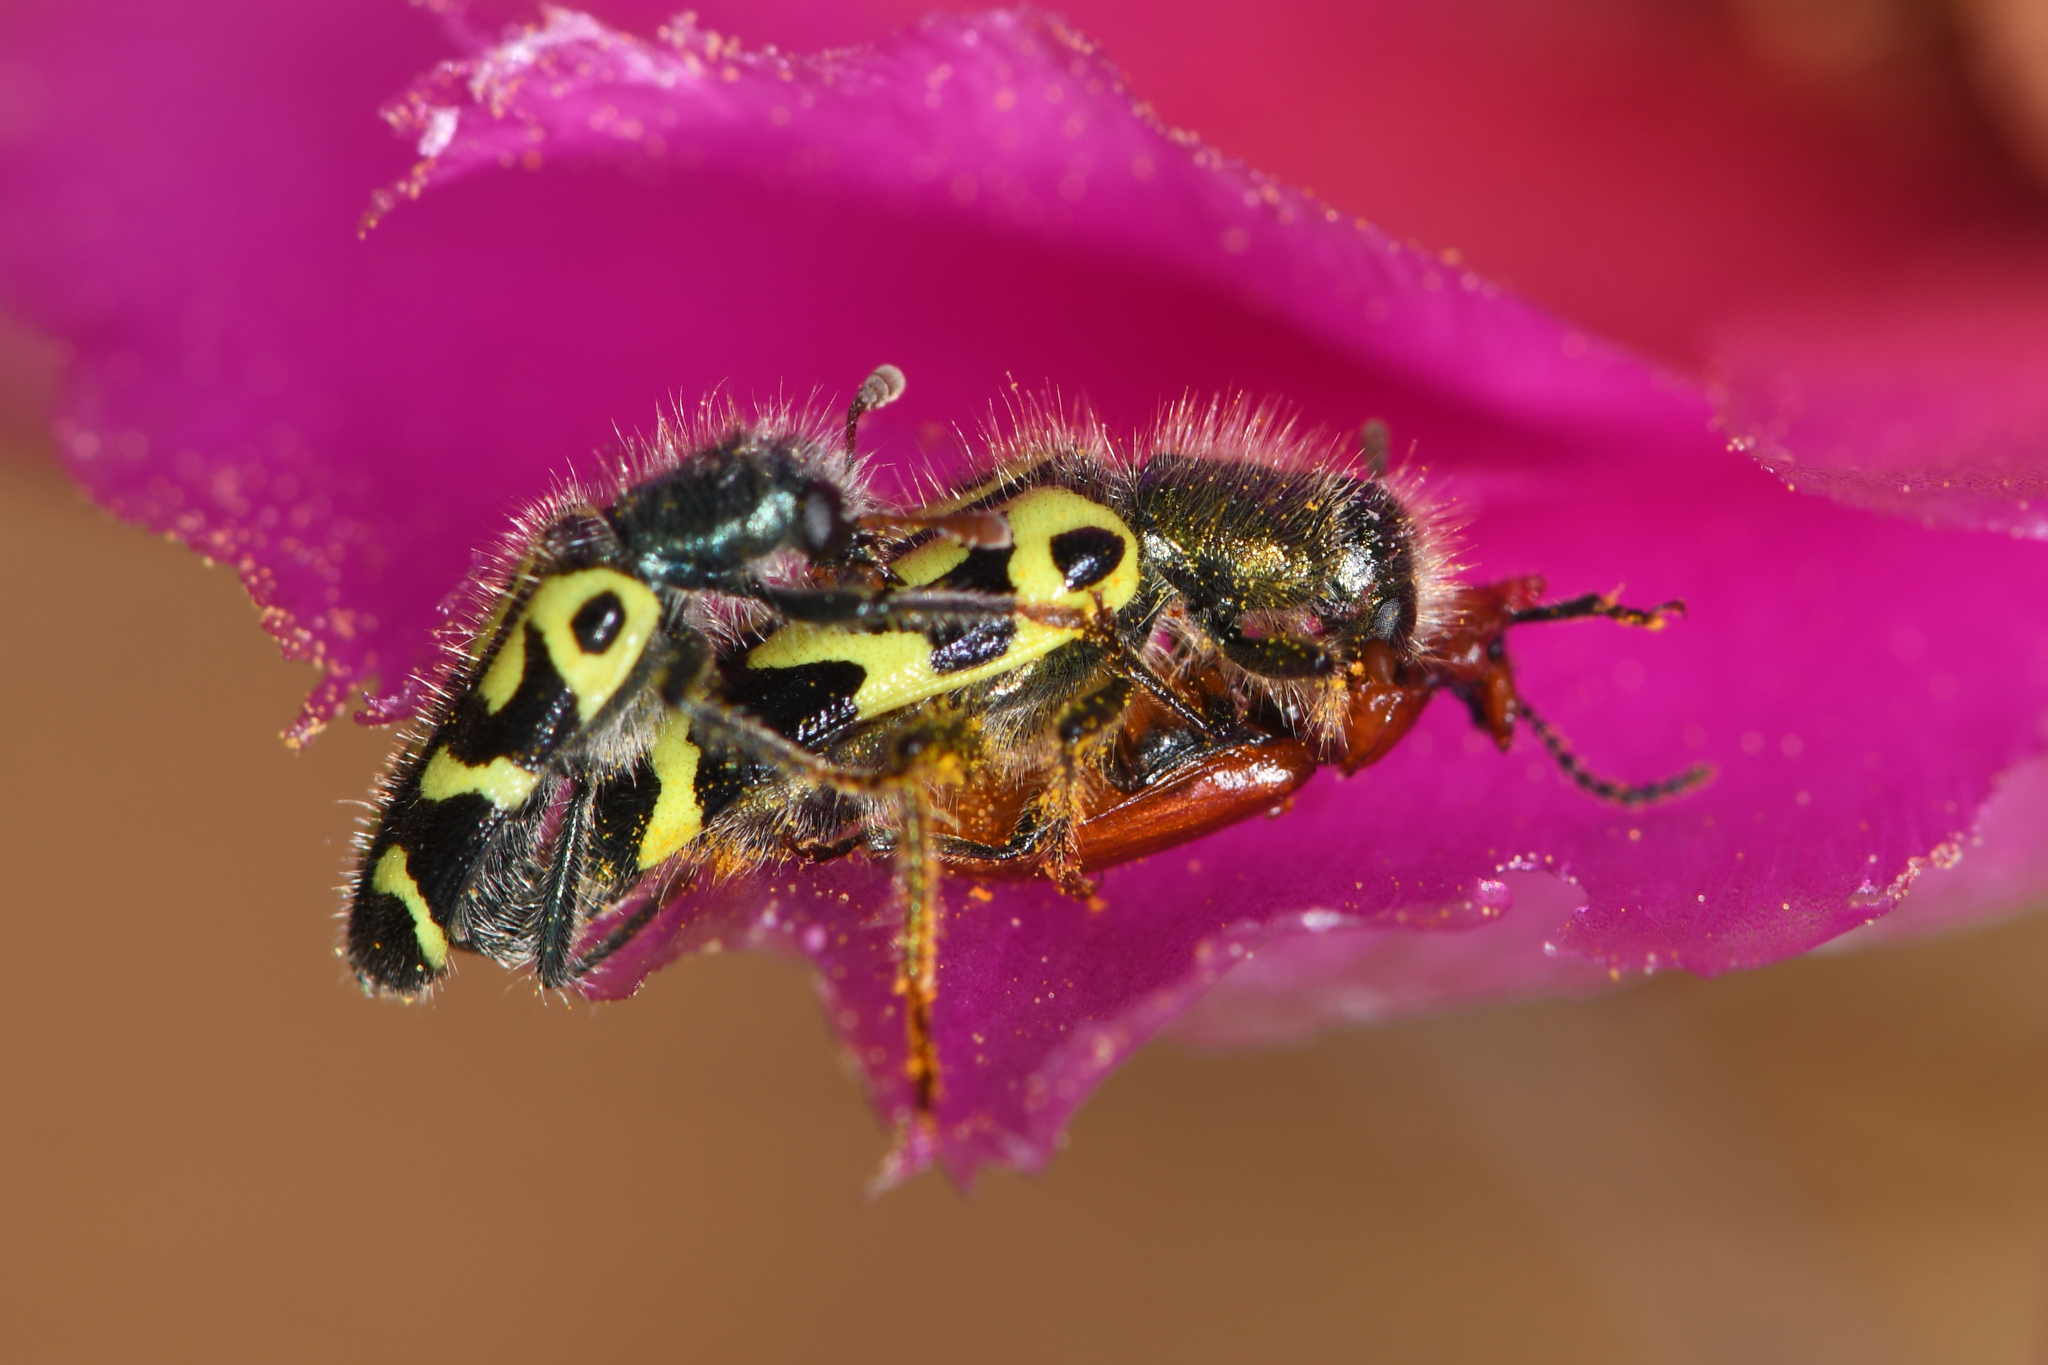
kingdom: Animalia
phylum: Arthropoda
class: Insecta
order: Coleoptera
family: Cleridae
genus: Trichodes
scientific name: Trichodes ornatus
